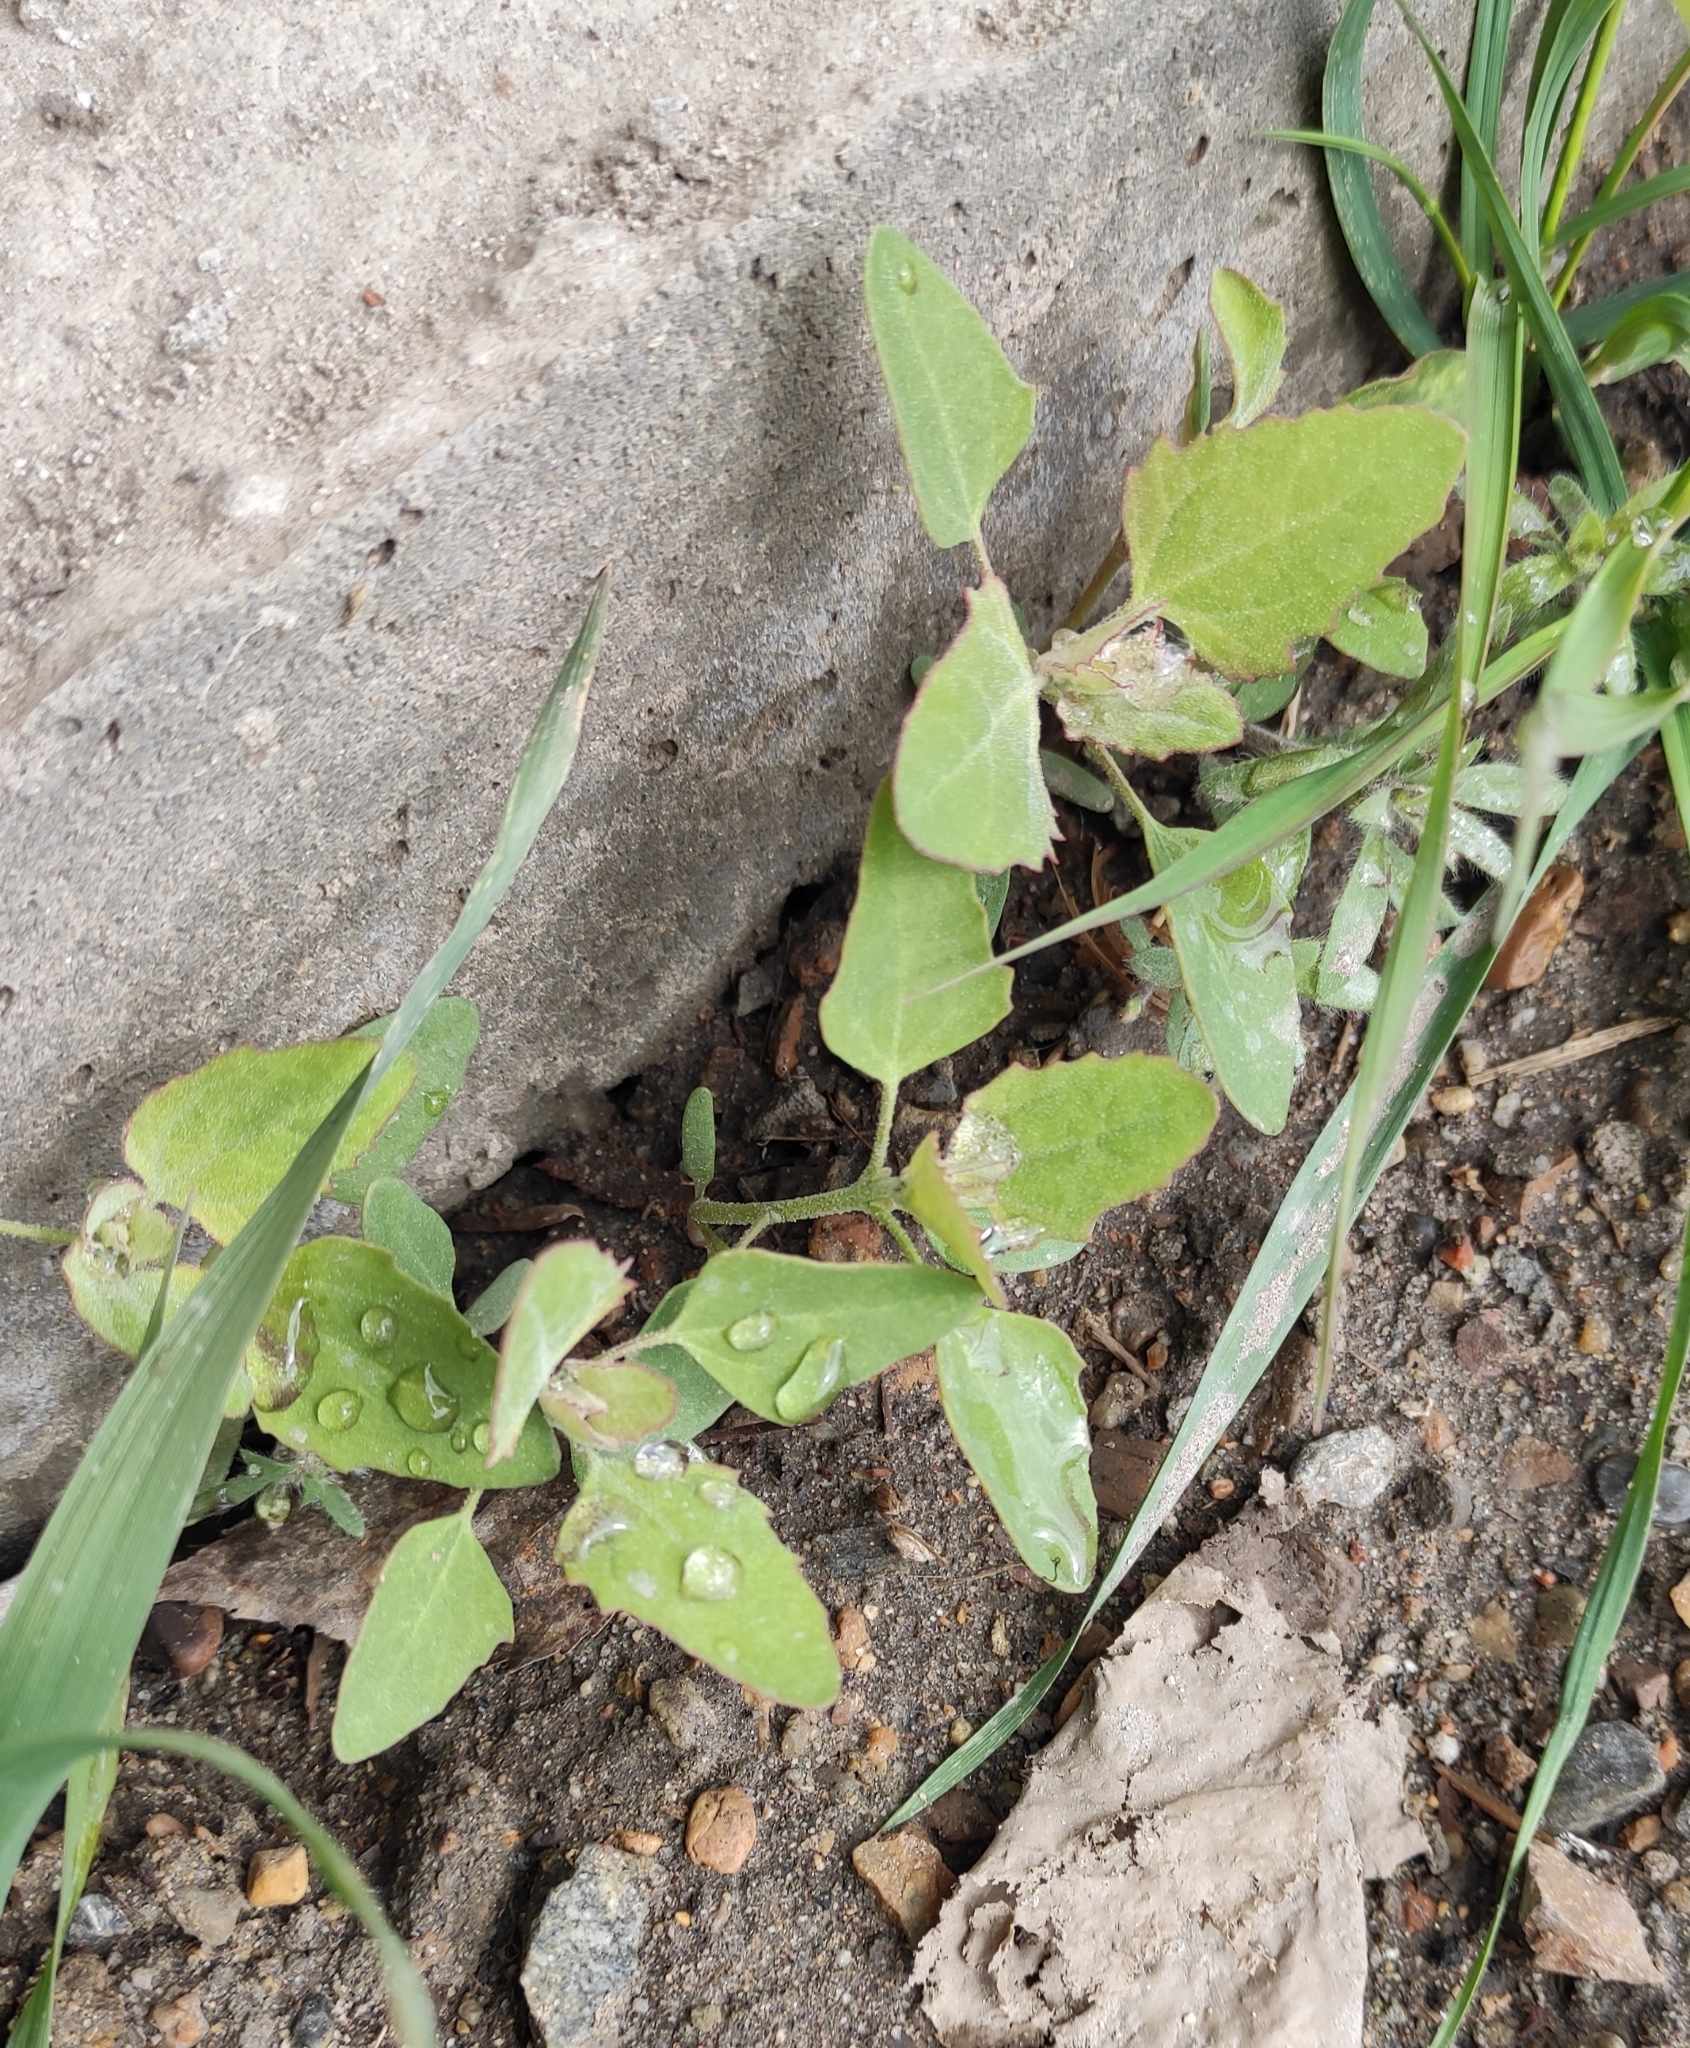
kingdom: Plantae
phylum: Tracheophyta
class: Magnoliopsida
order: Caryophyllales
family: Amaranthaceae
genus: Chenopodium
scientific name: Chenopodium album
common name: Fat-hen
